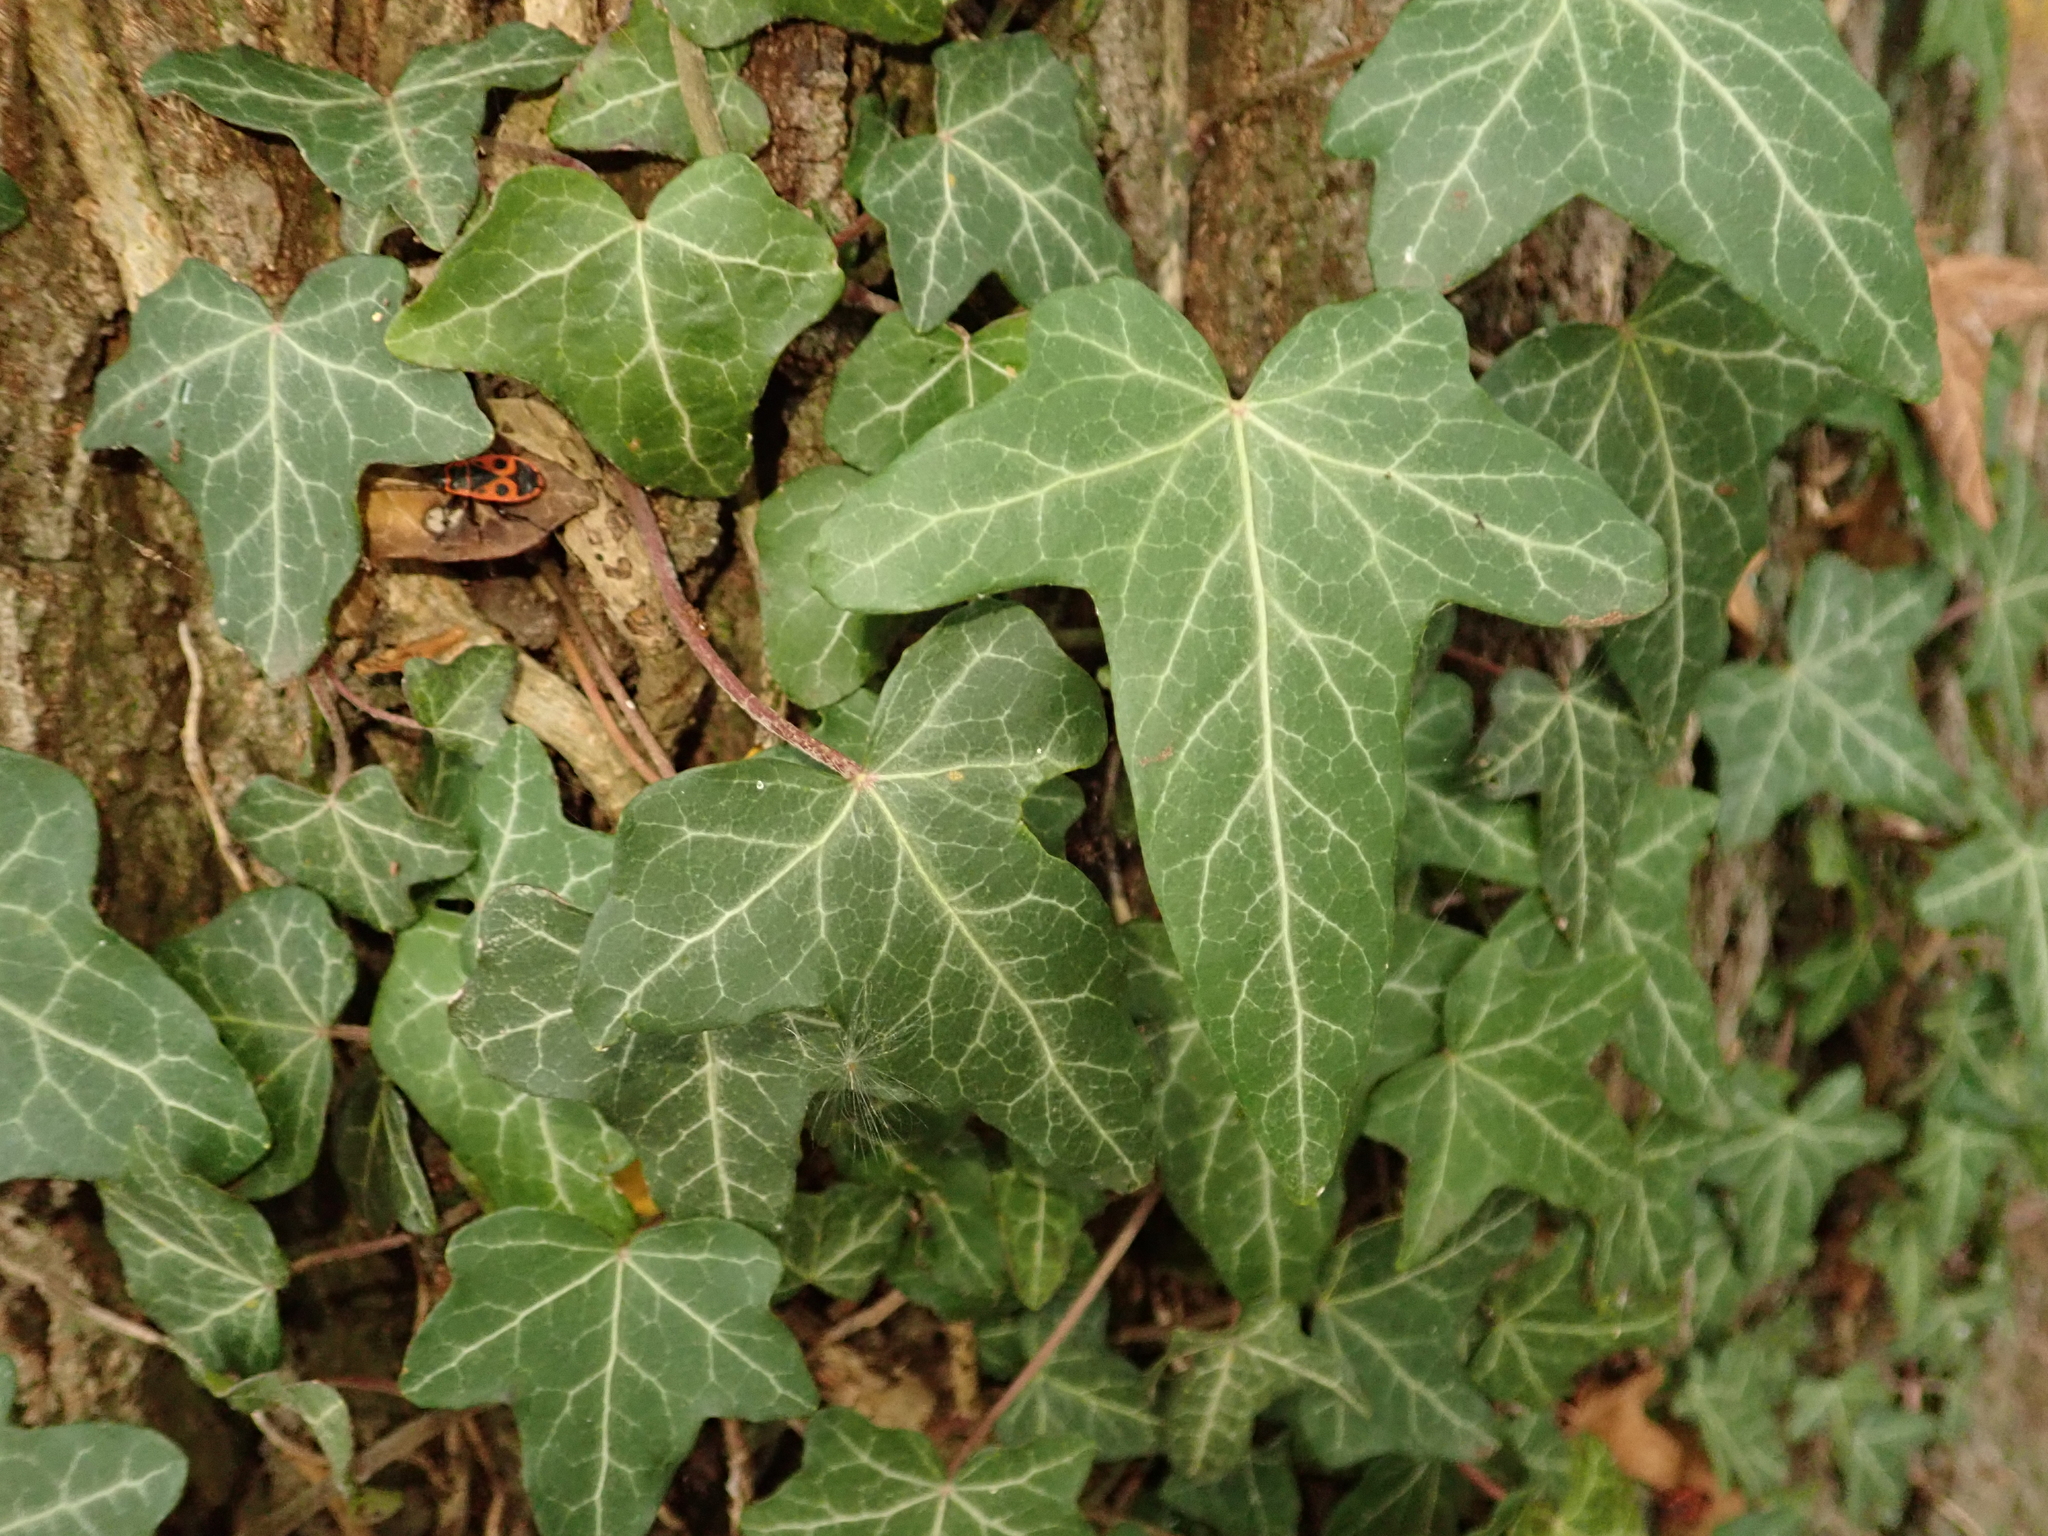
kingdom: Plantae
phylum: Tracheophyta
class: Magnoliopsida
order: Apiales
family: Araliaceae
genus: Hedera
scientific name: Hedera helix
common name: Ivy
